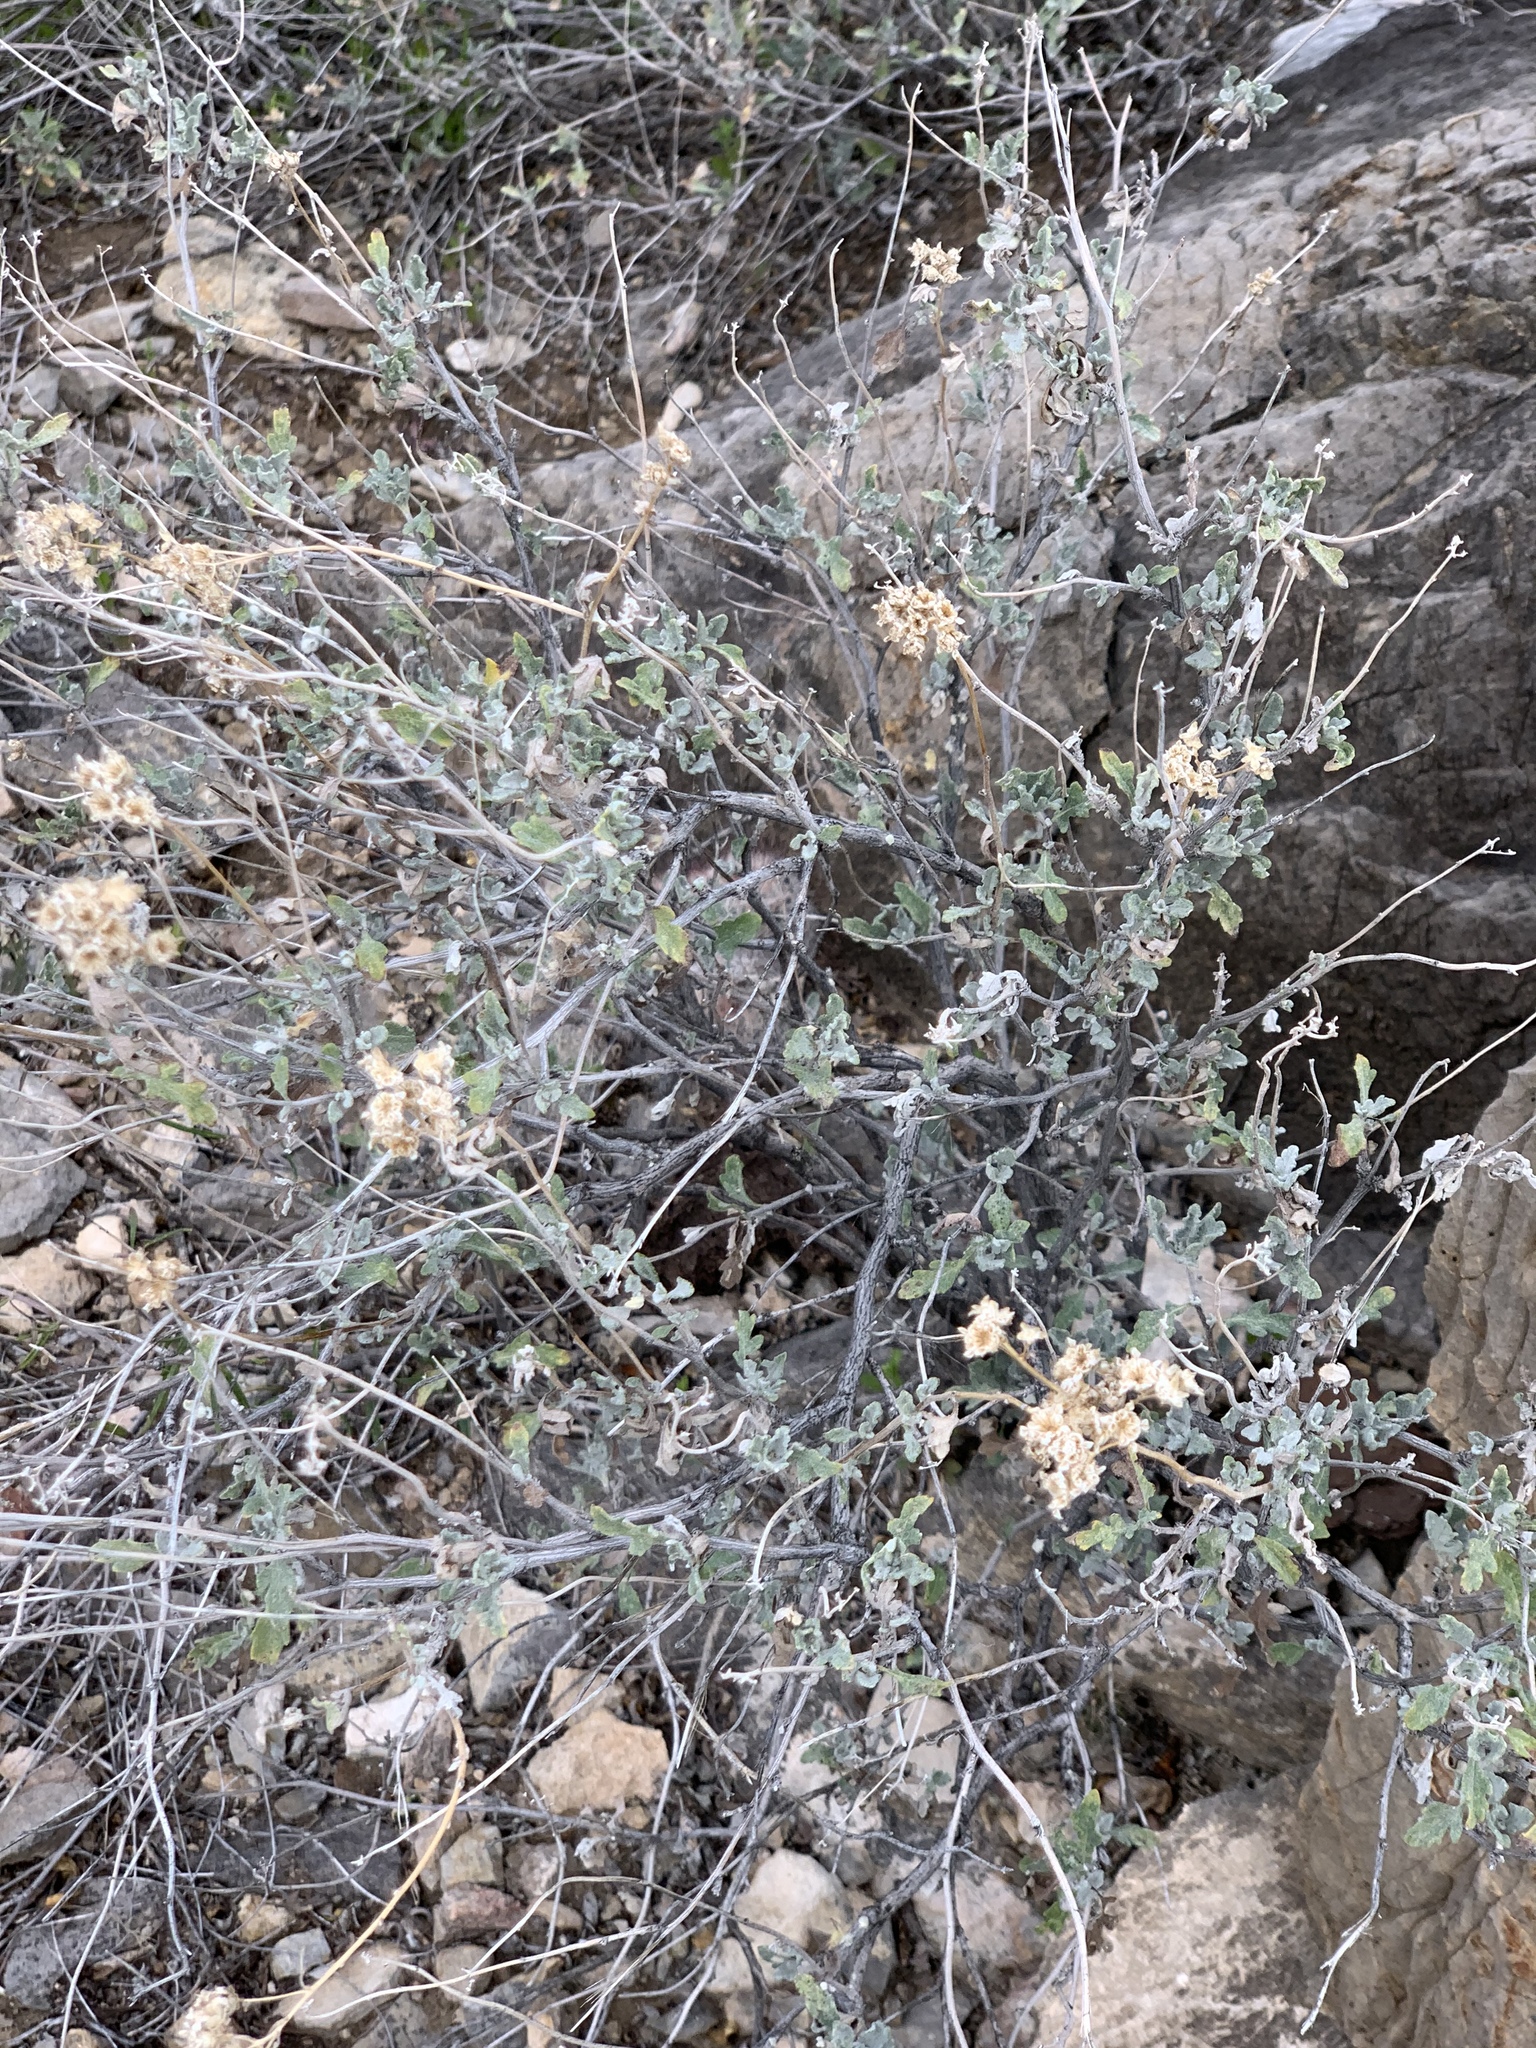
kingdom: Plantae
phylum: Tracheophyta
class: Magnoliopsida
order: Asterales
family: Asteraceae
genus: Parthenium
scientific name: Parthenium incanum
